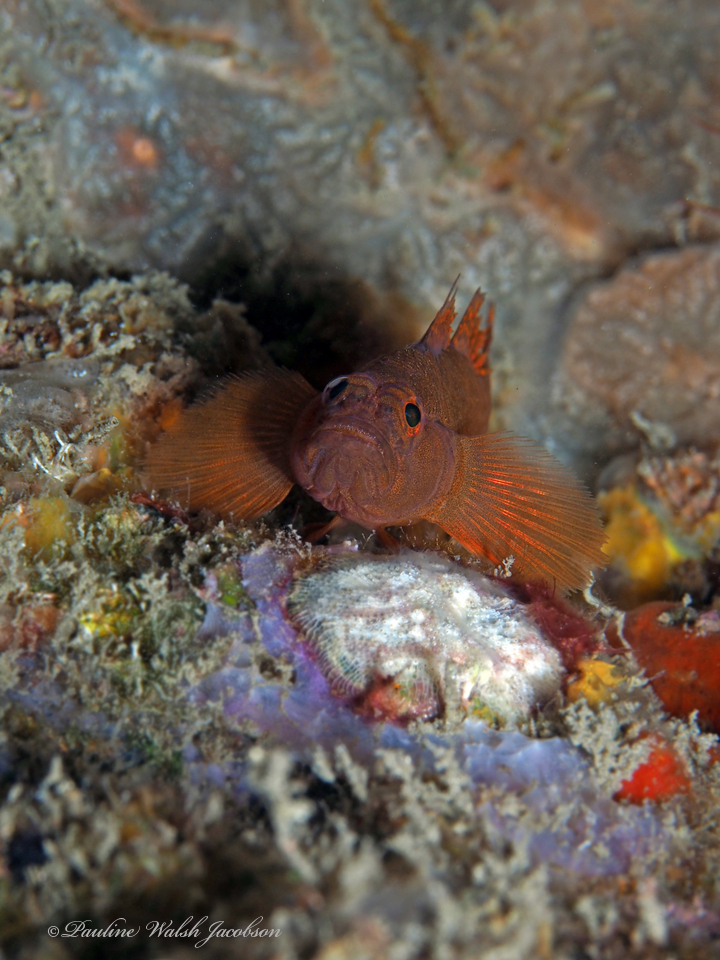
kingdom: Animalia
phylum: Chordata
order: Perciformes
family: Gobiidae
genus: Priolepis
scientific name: Priolepis hipoliti
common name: Rusty goby
